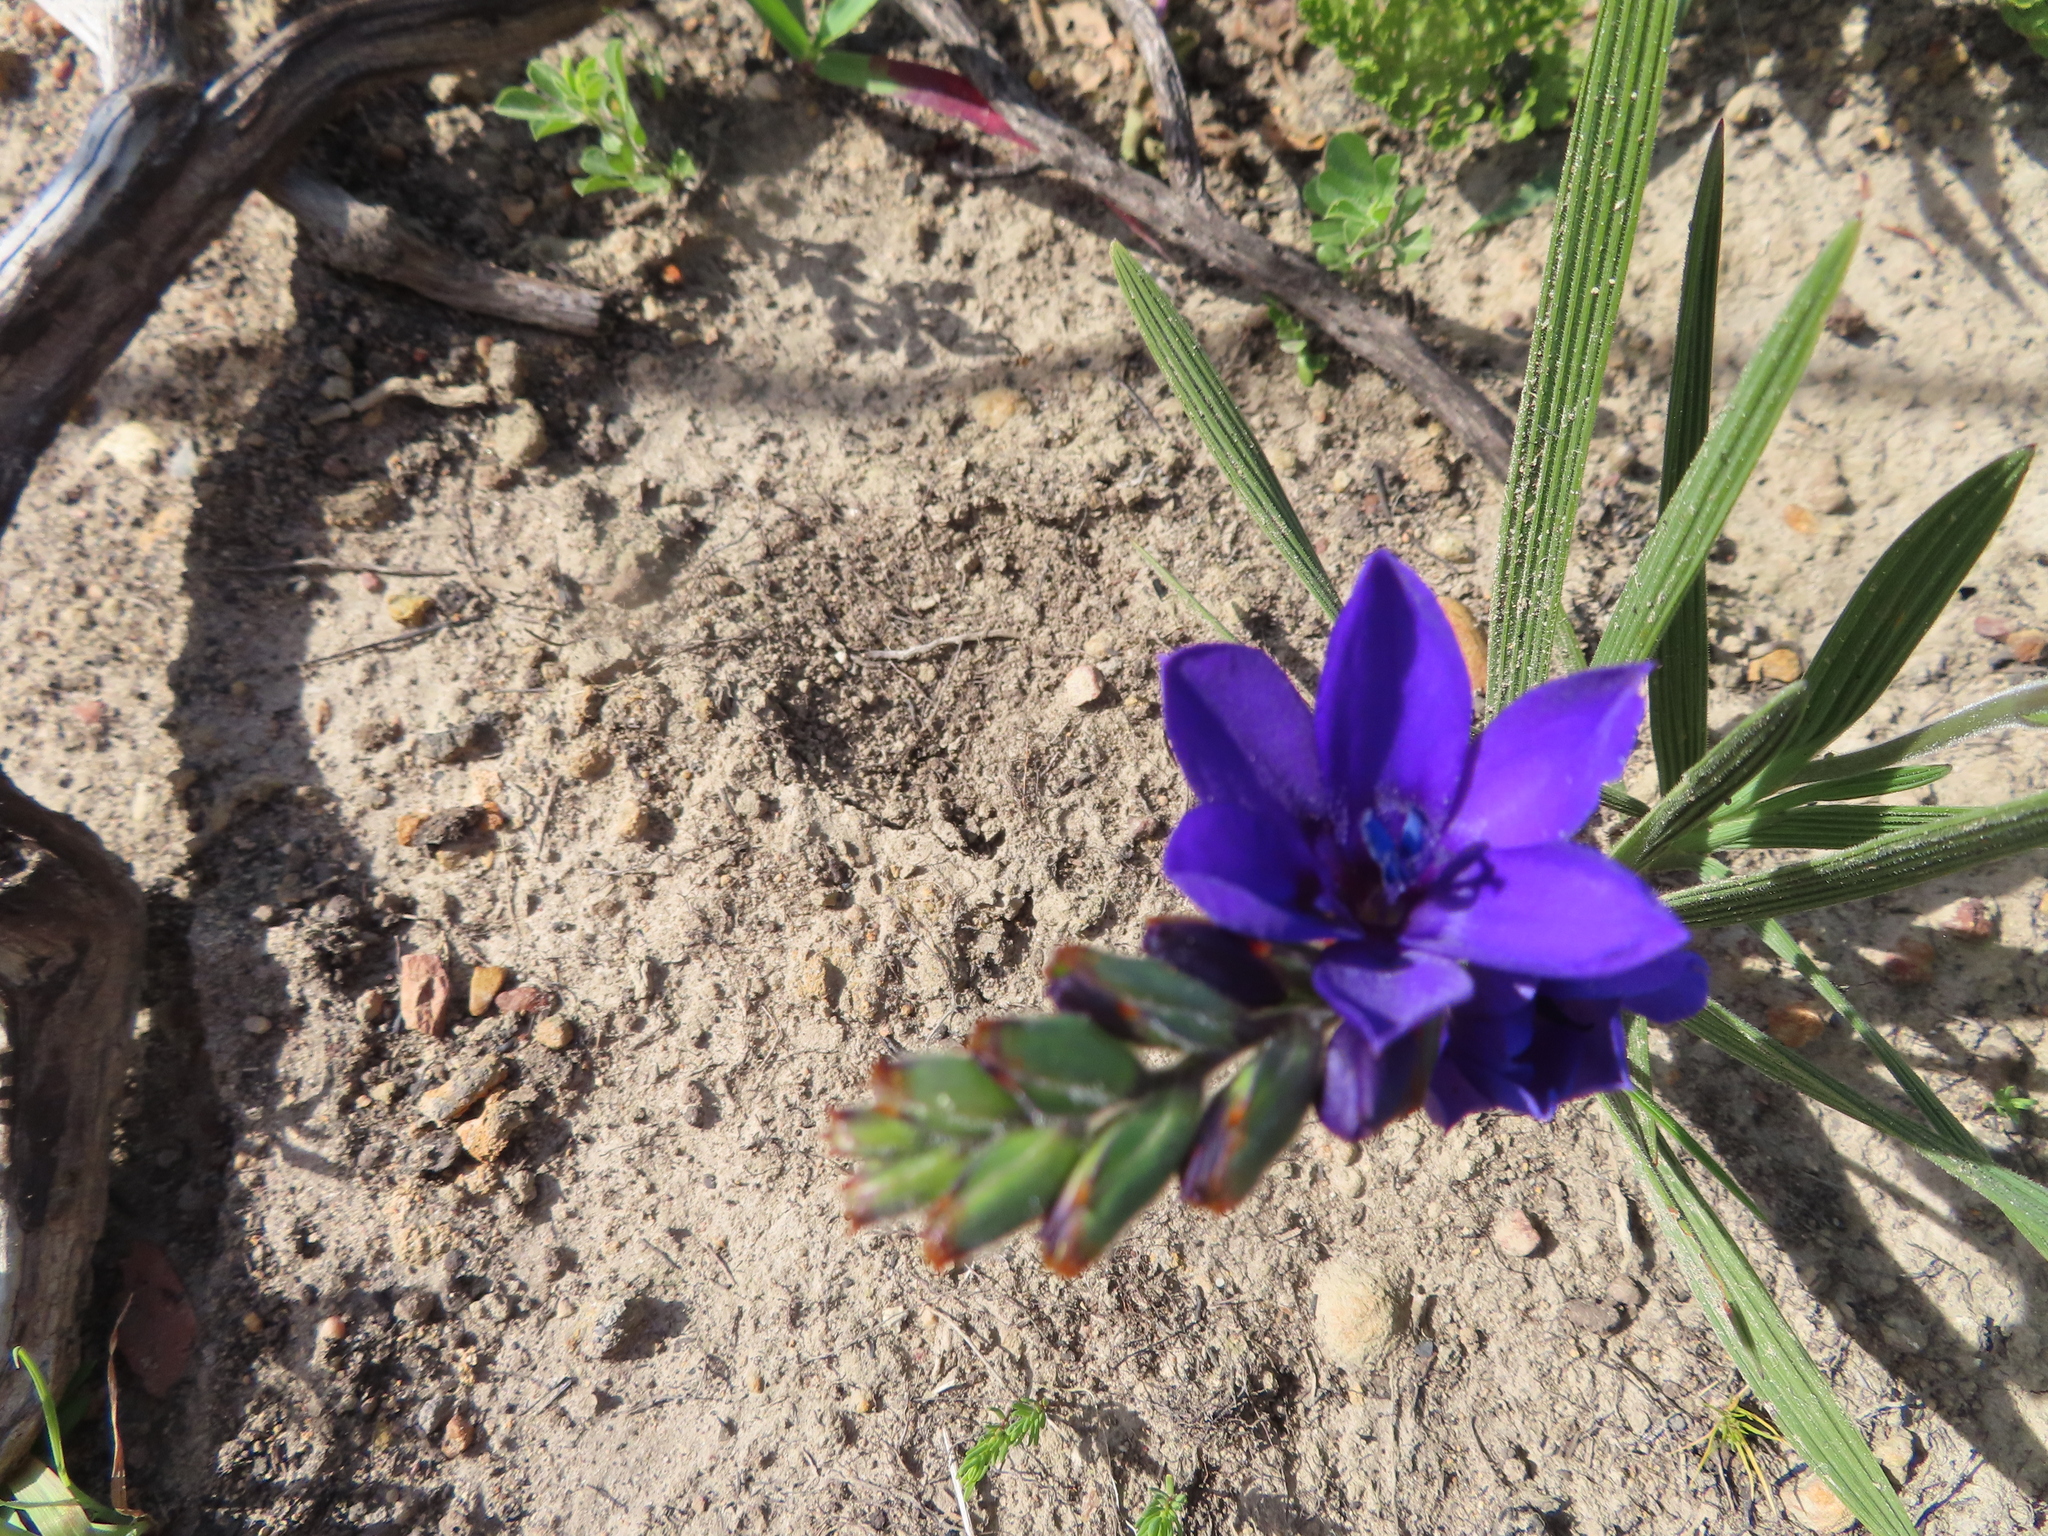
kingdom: Plantae
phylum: Tracheophyta
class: Liliopsida
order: Asparagales
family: Iridaceae
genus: Babiana
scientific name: Babiana angustifolia
